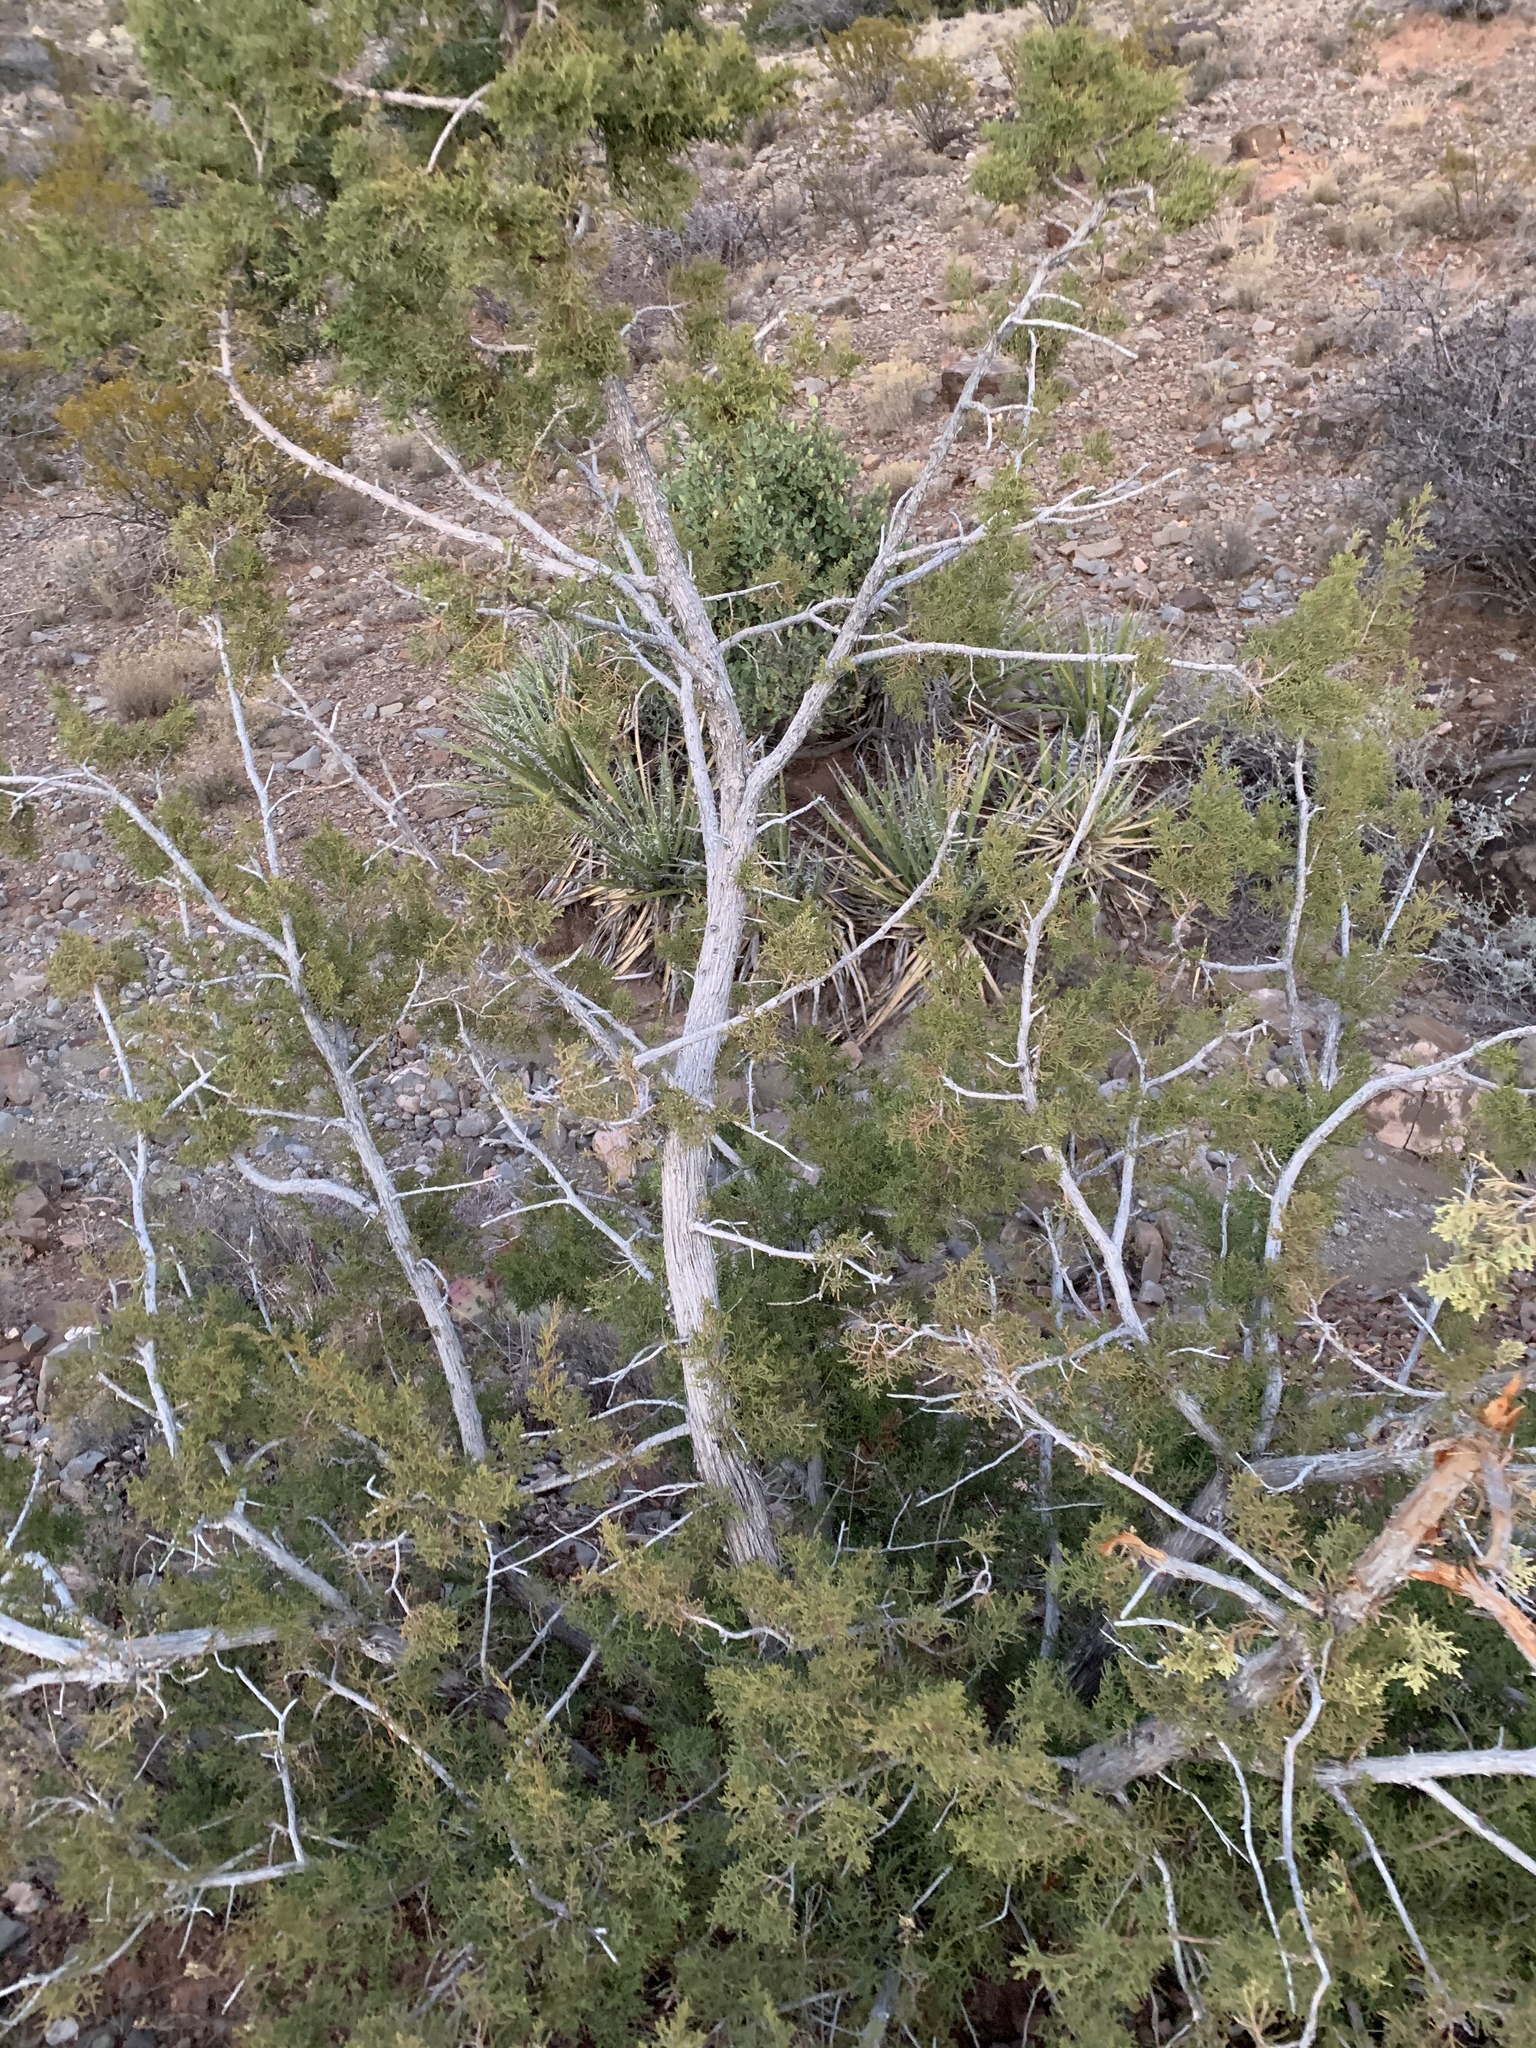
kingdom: Plantae
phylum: Tracheophyta
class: Pinopsida
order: Pinales
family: Cupressaceae
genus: Juniperus
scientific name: Juniperus monosperma
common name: One-seed juniper
